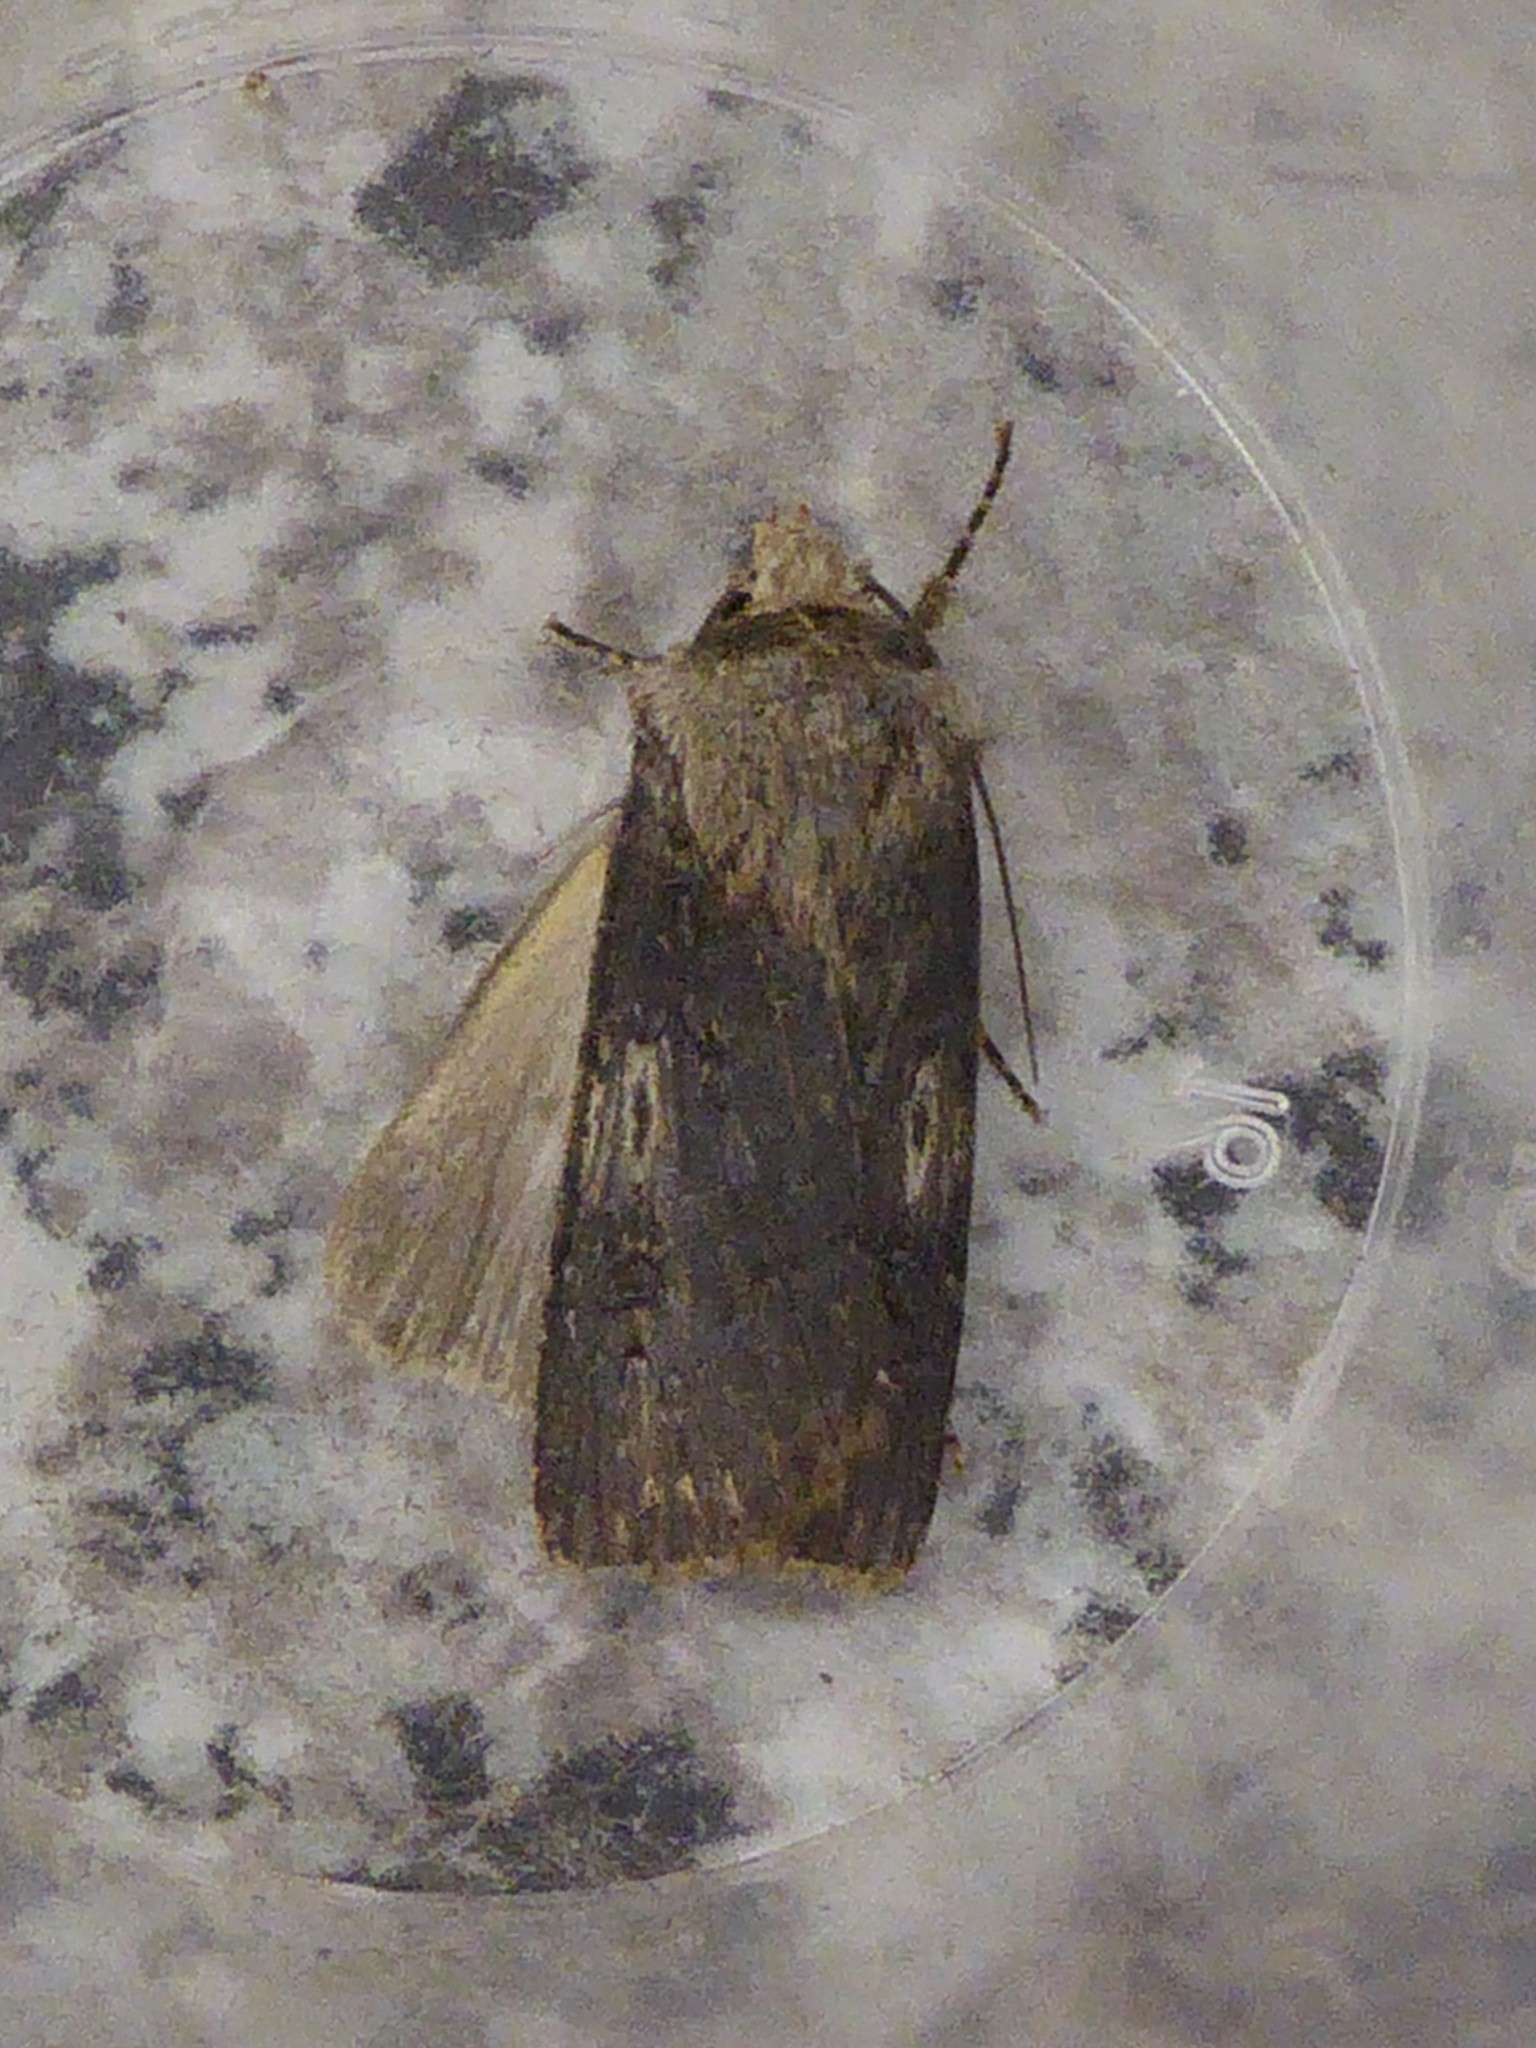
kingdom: Animalia
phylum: Arthropoda
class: Insecta
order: Lepidoptera
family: Noctuidae
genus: Agrotis
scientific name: Agrotis puta
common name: Shuttle-shaped dart
